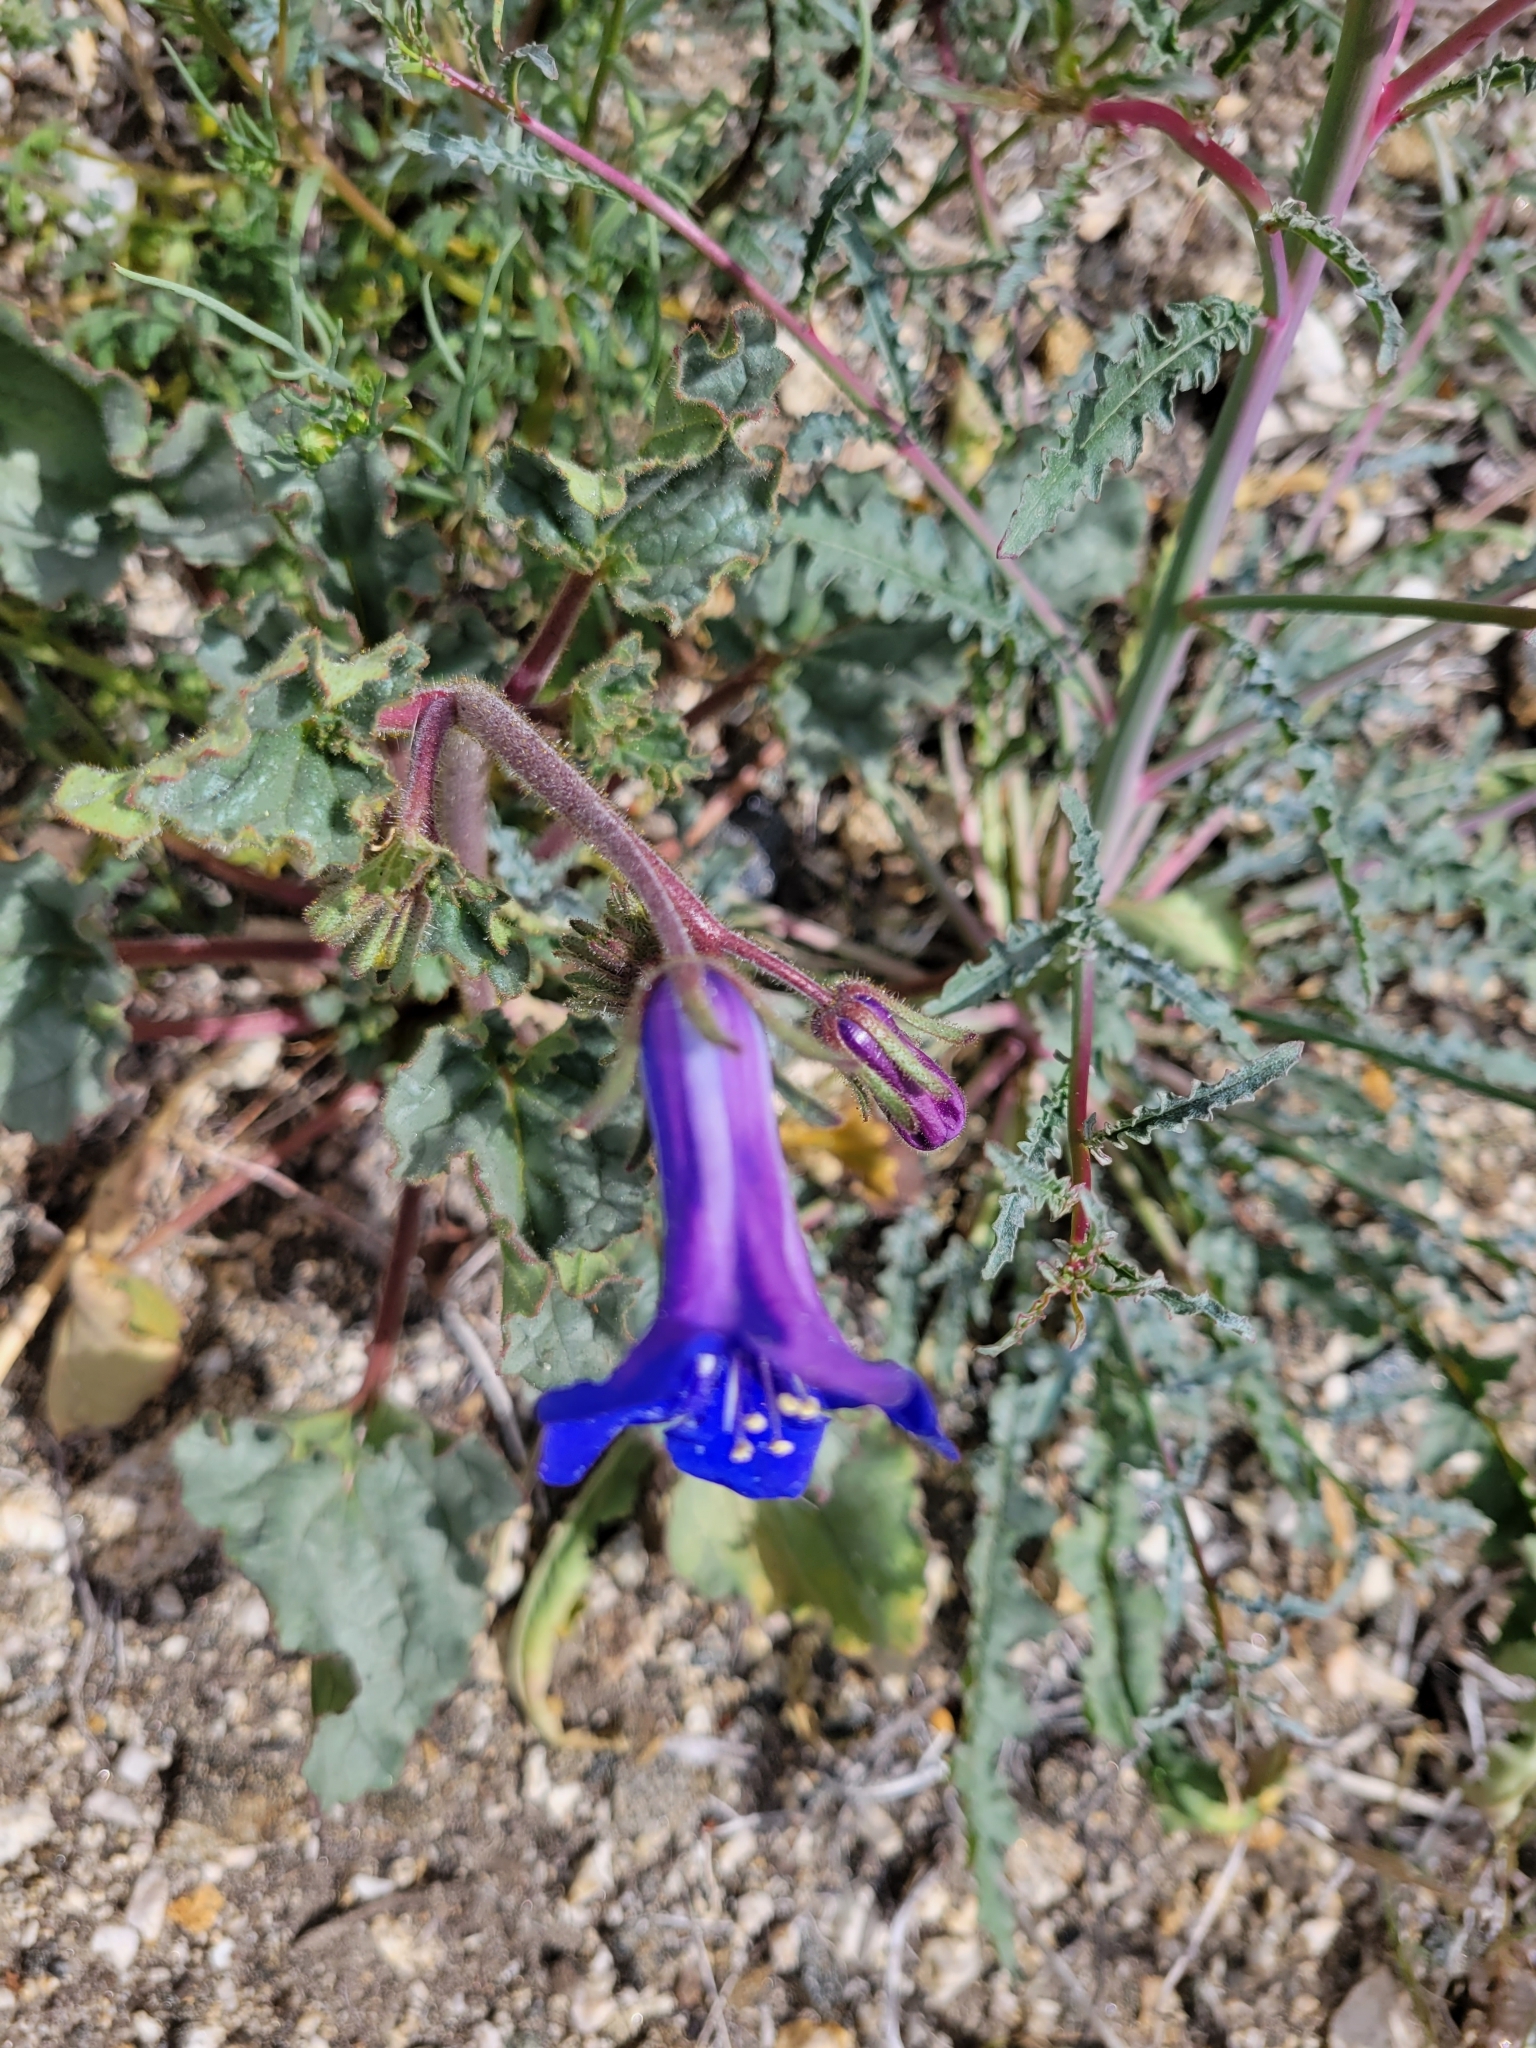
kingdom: Plantae
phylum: Tracheophyta
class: Magnoliopsida
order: Boraginales
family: Hydrophyllaceae
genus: Phacelia
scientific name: Phacelia campanularia
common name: California bluebell
